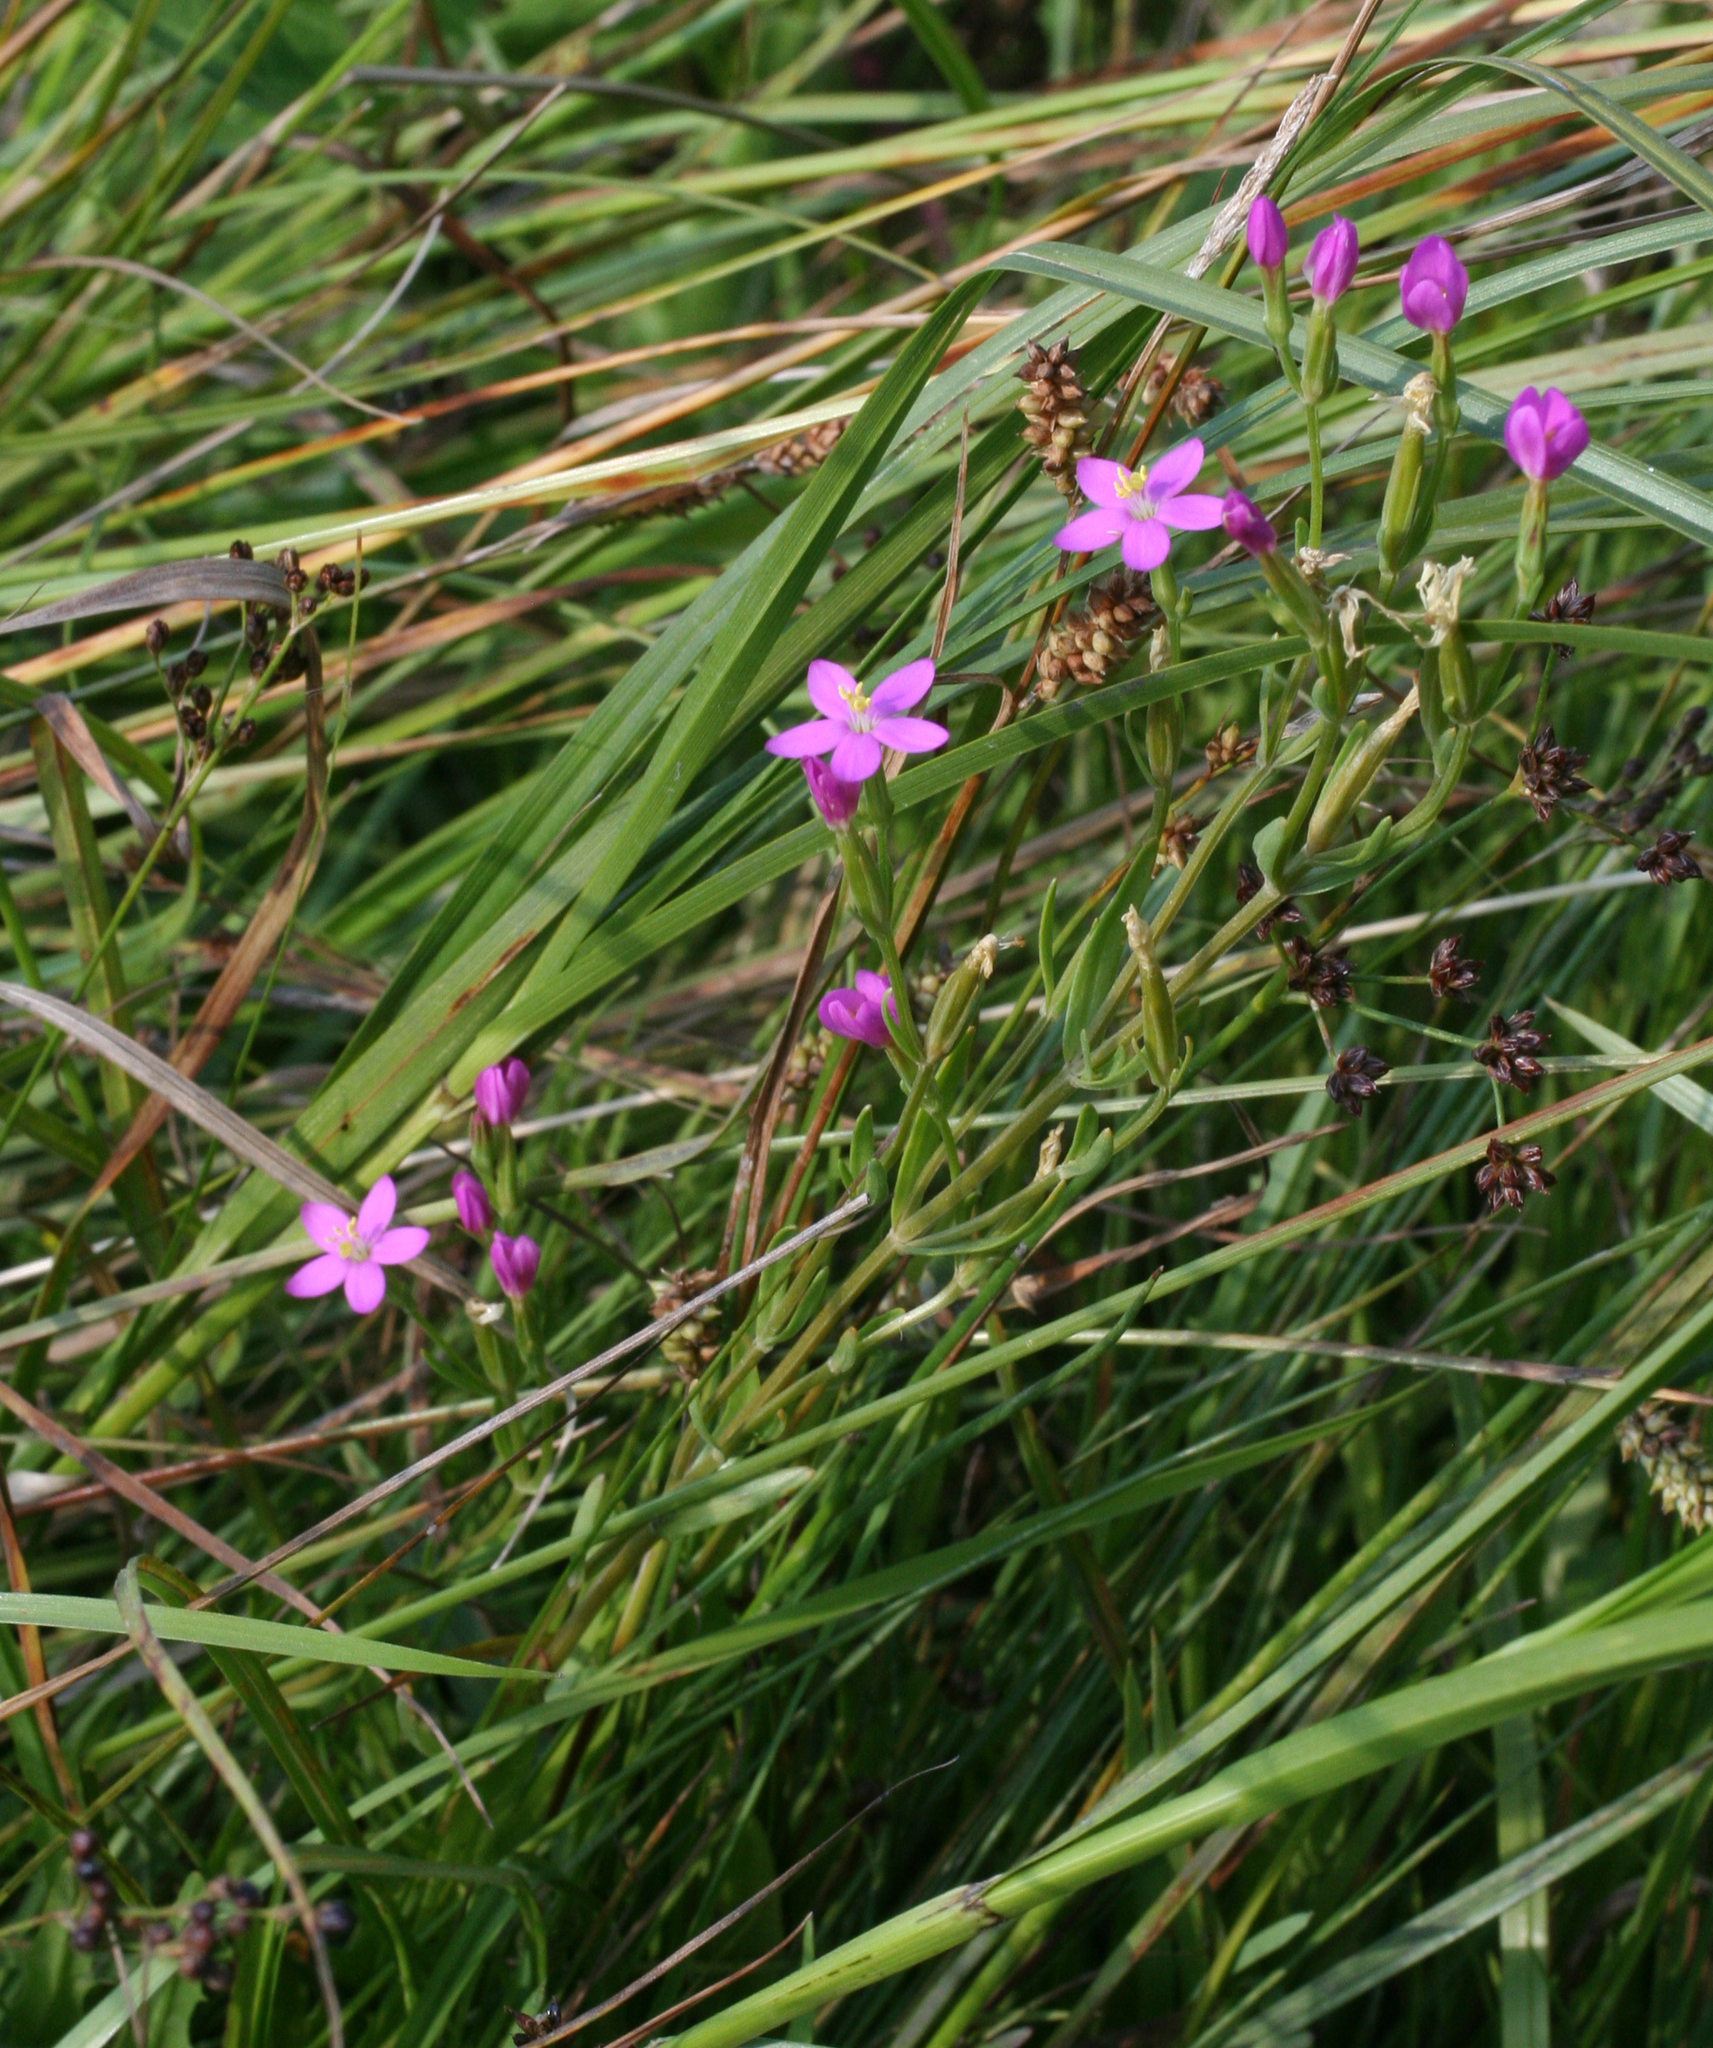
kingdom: Plantae
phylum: Tracheophyta
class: Magnoliopsida
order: Gentianales
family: Gentianaceae
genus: Centaurium
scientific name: Centaurium pulchellum
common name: Lesser centaury
